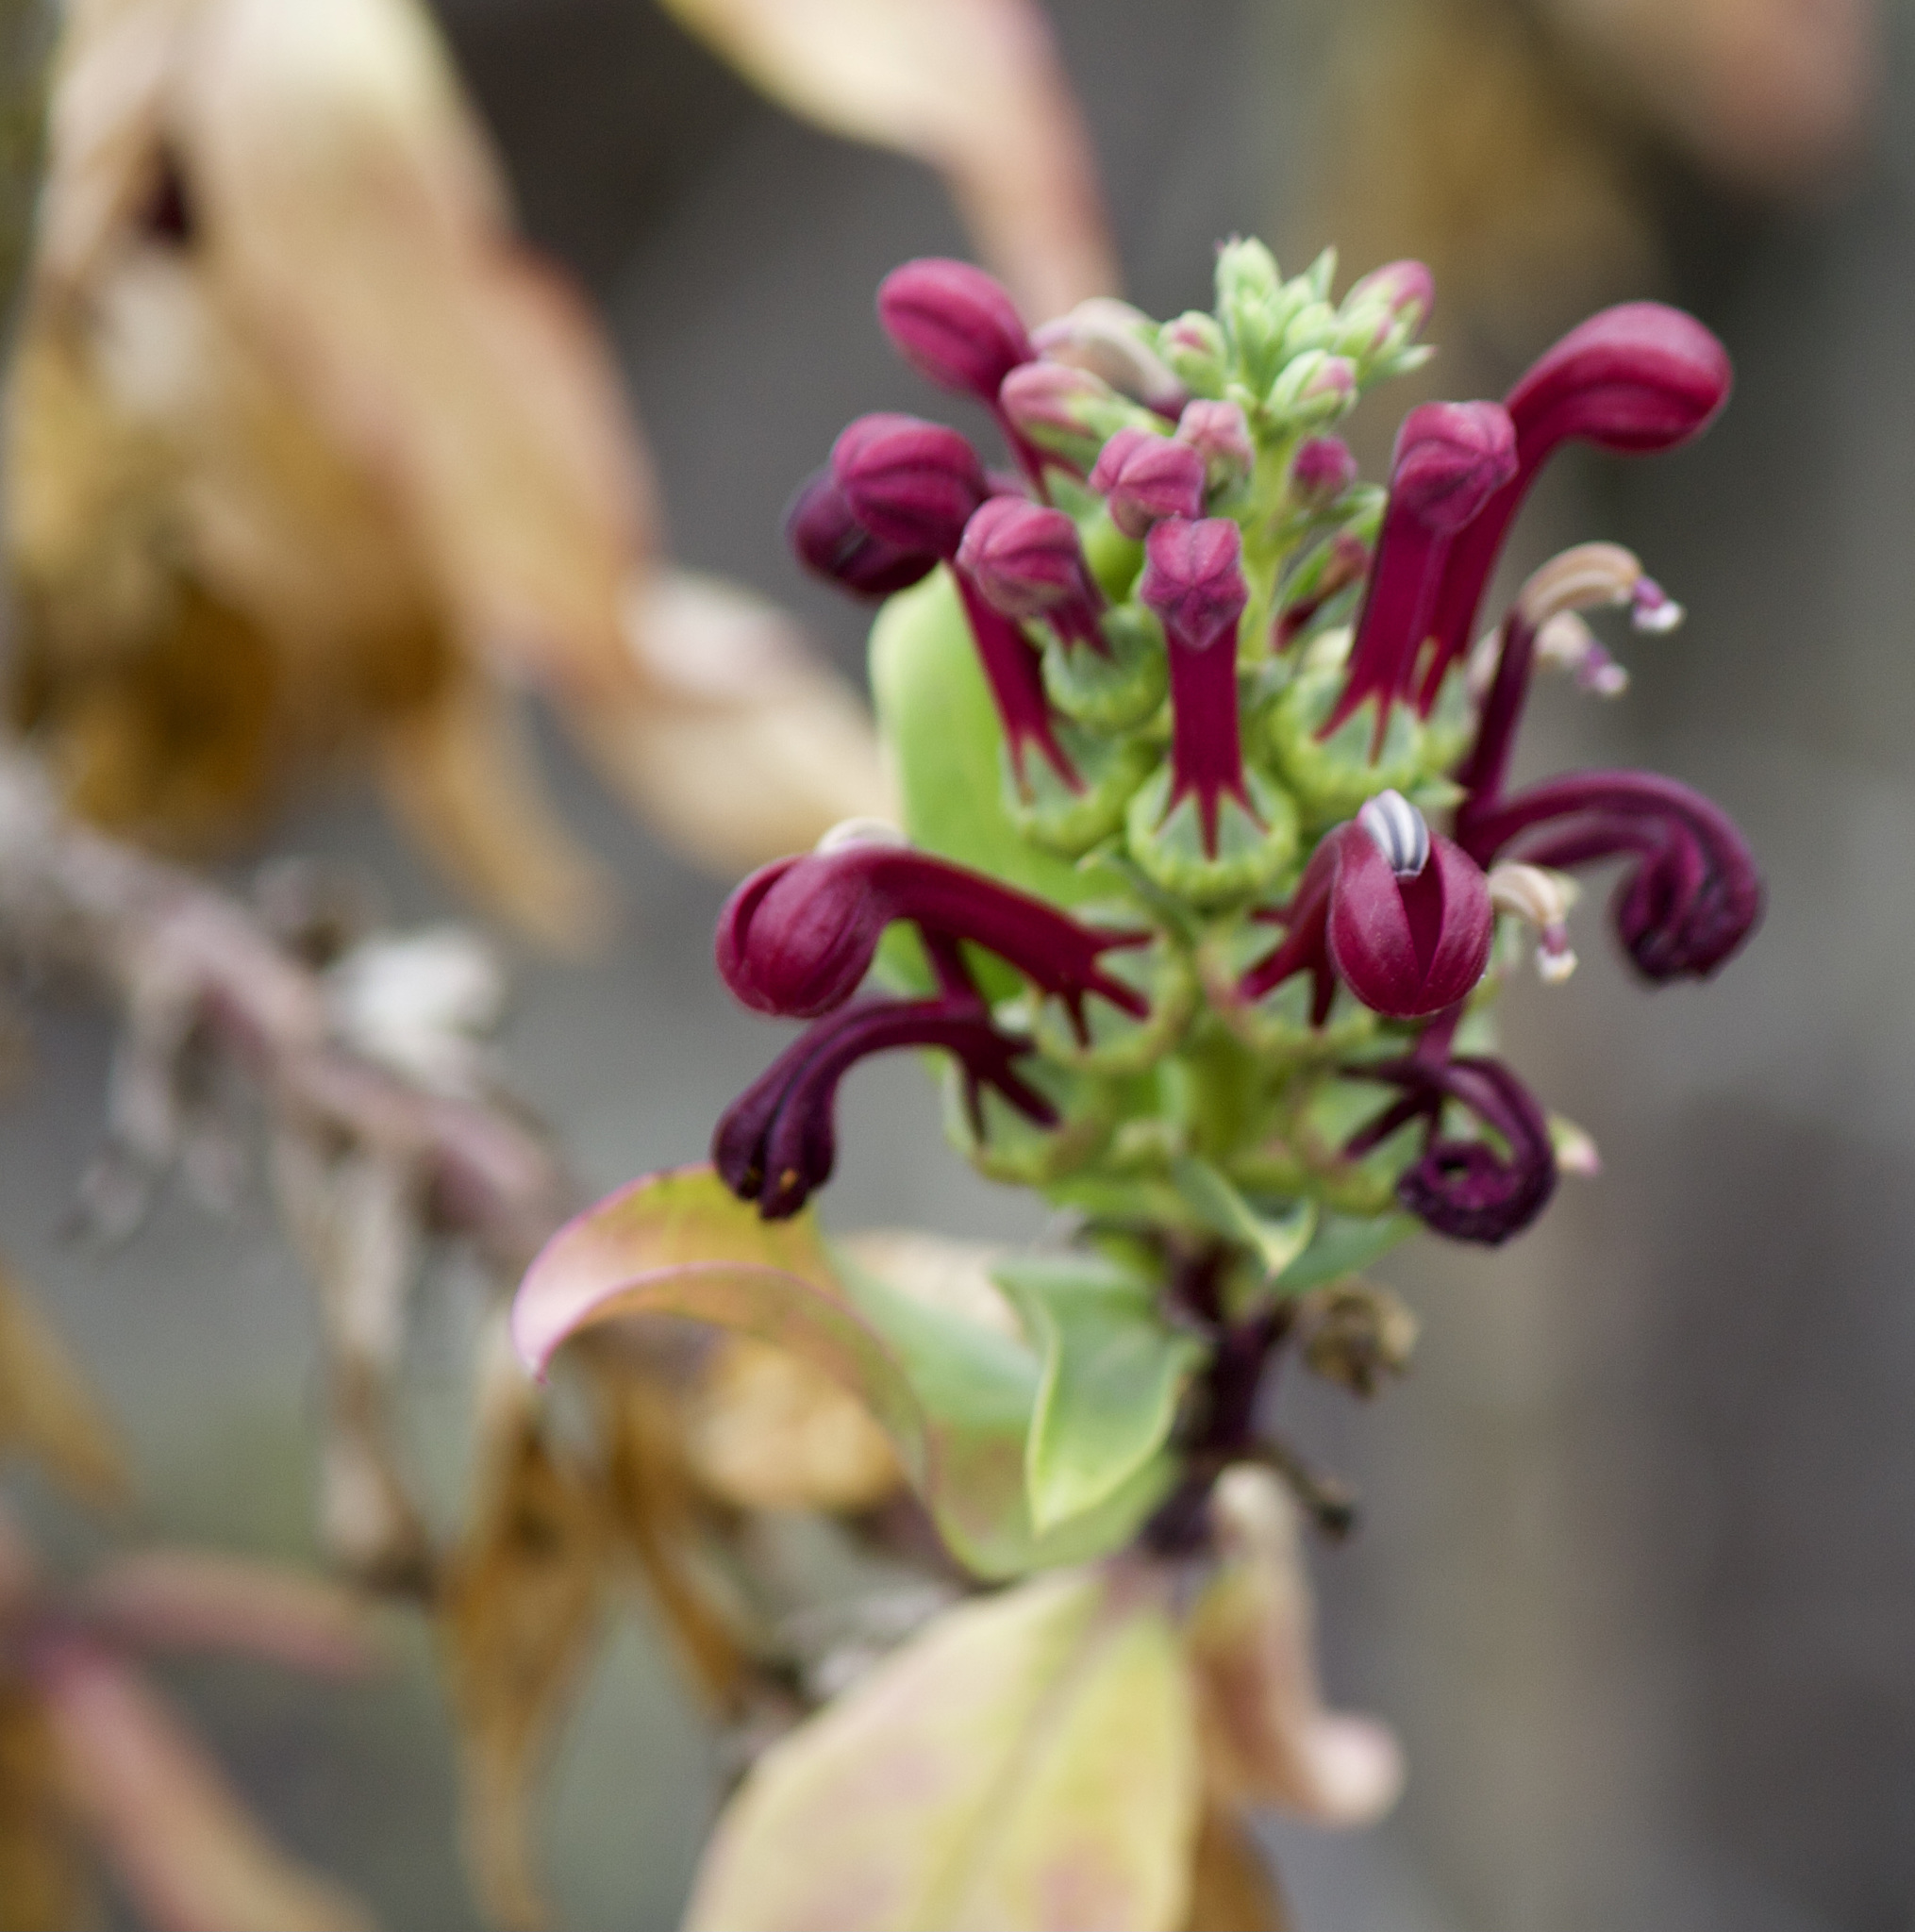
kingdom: Plantae
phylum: Tracheophyta
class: Magnoliopsida
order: Asterales
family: Campanulaceae
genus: Lobelia
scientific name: Lobelia polyphylla
